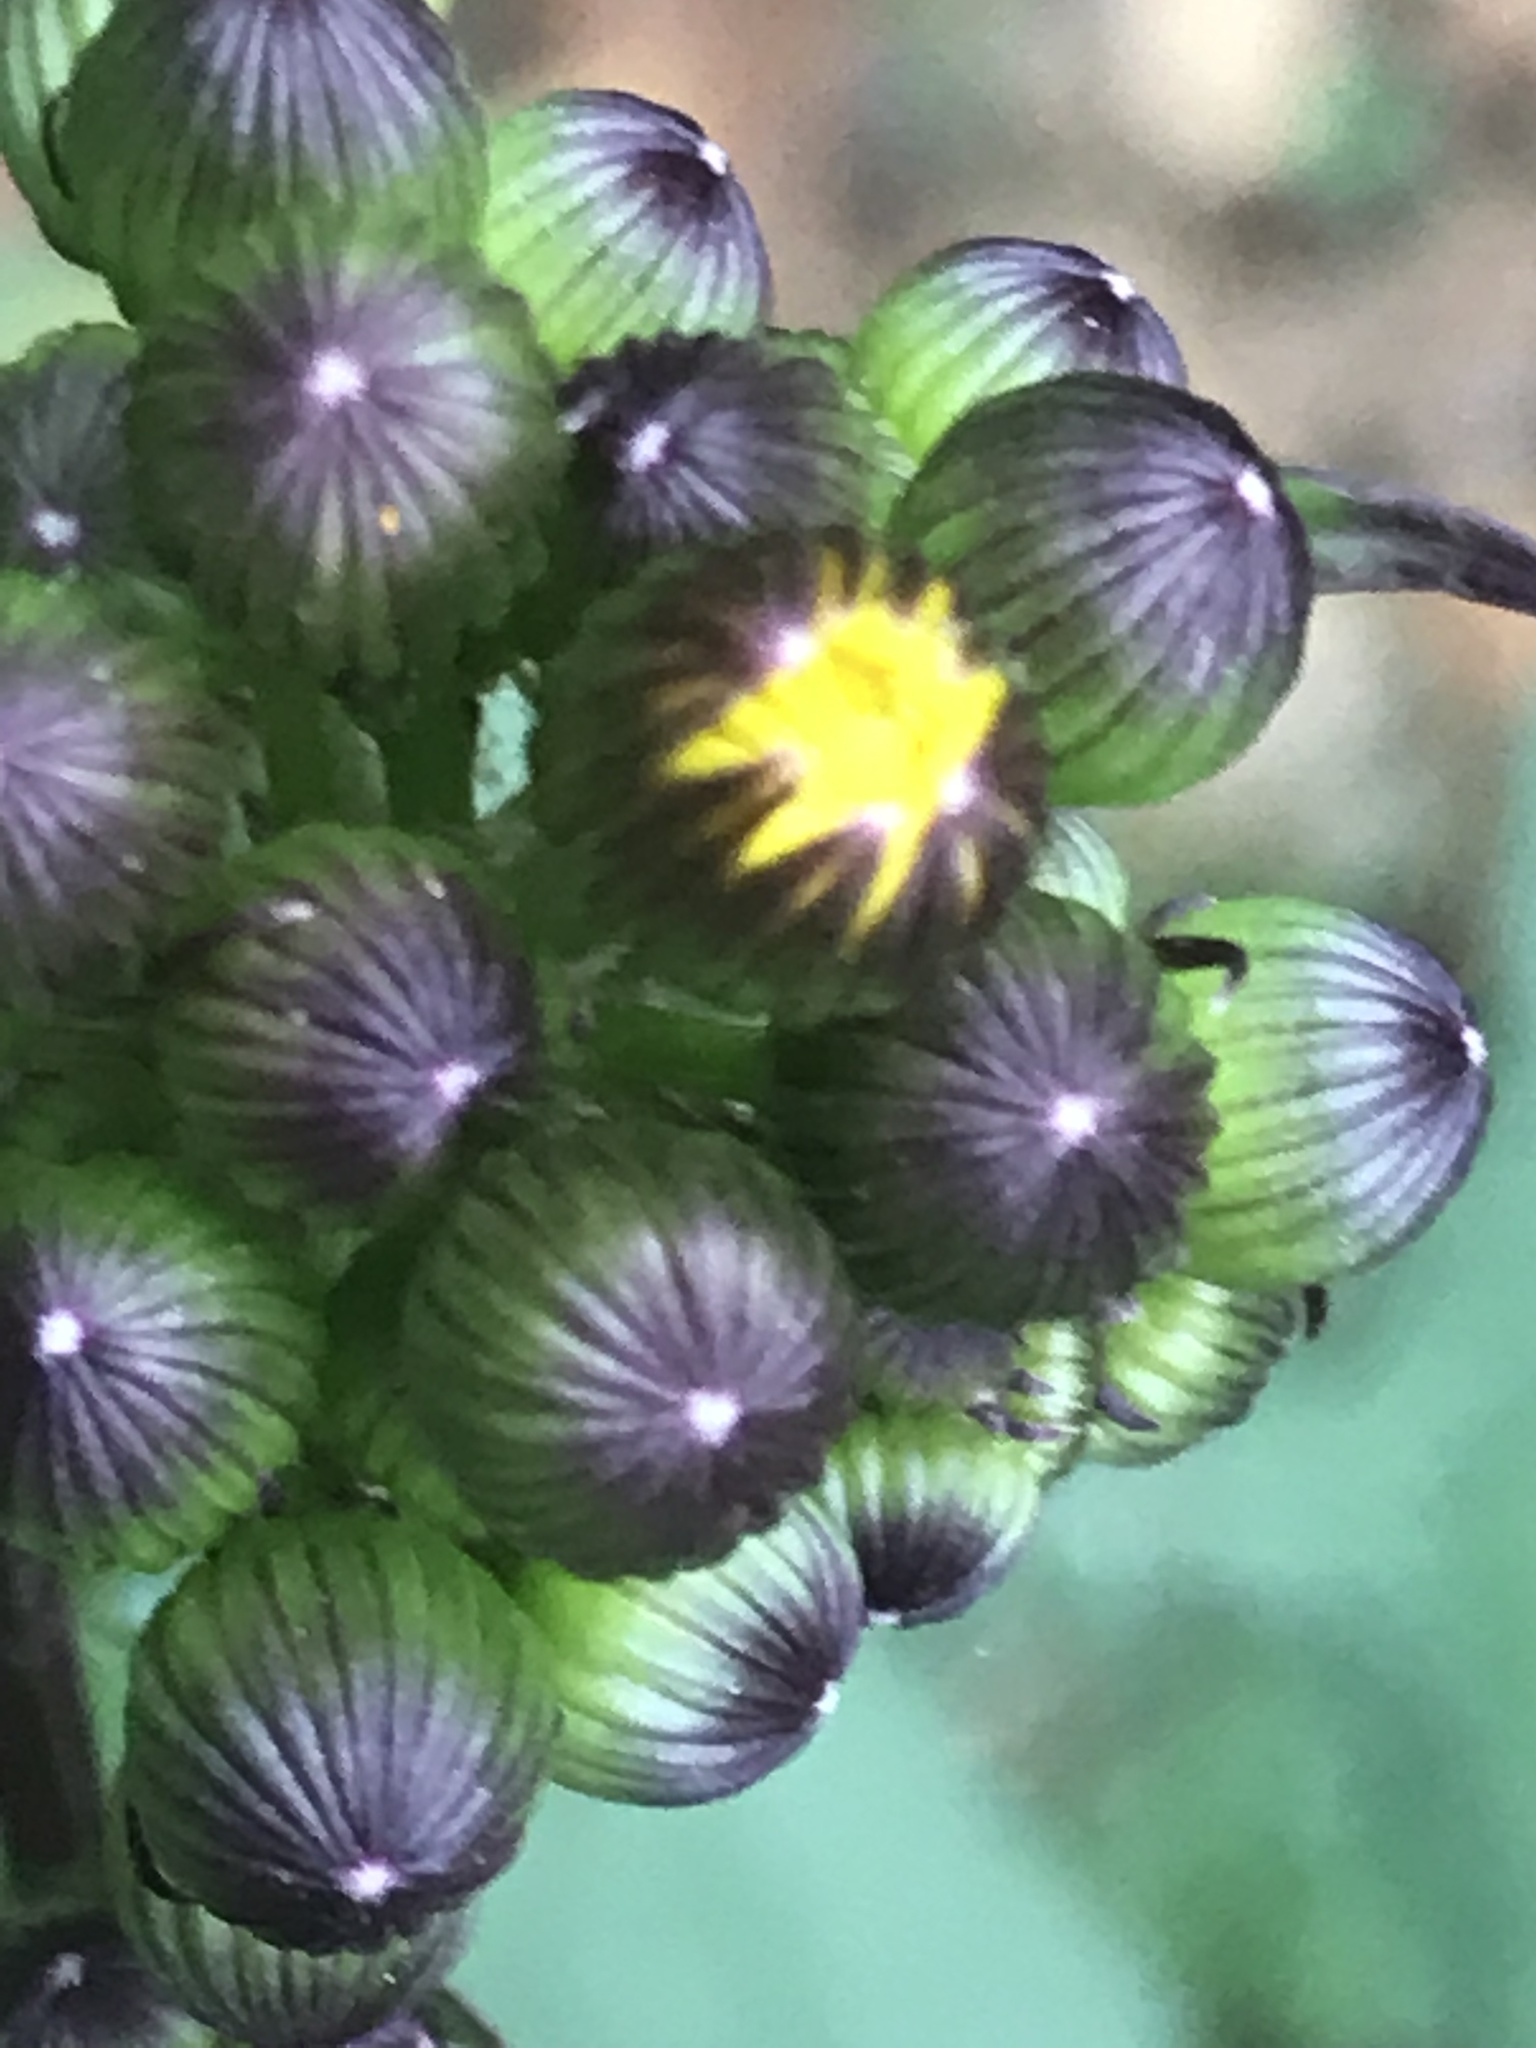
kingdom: Plantae
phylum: Tracheophyta
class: Magnoliopsida
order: Asterales
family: Asteraceae
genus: Packera
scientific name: Packera coahuilensis
